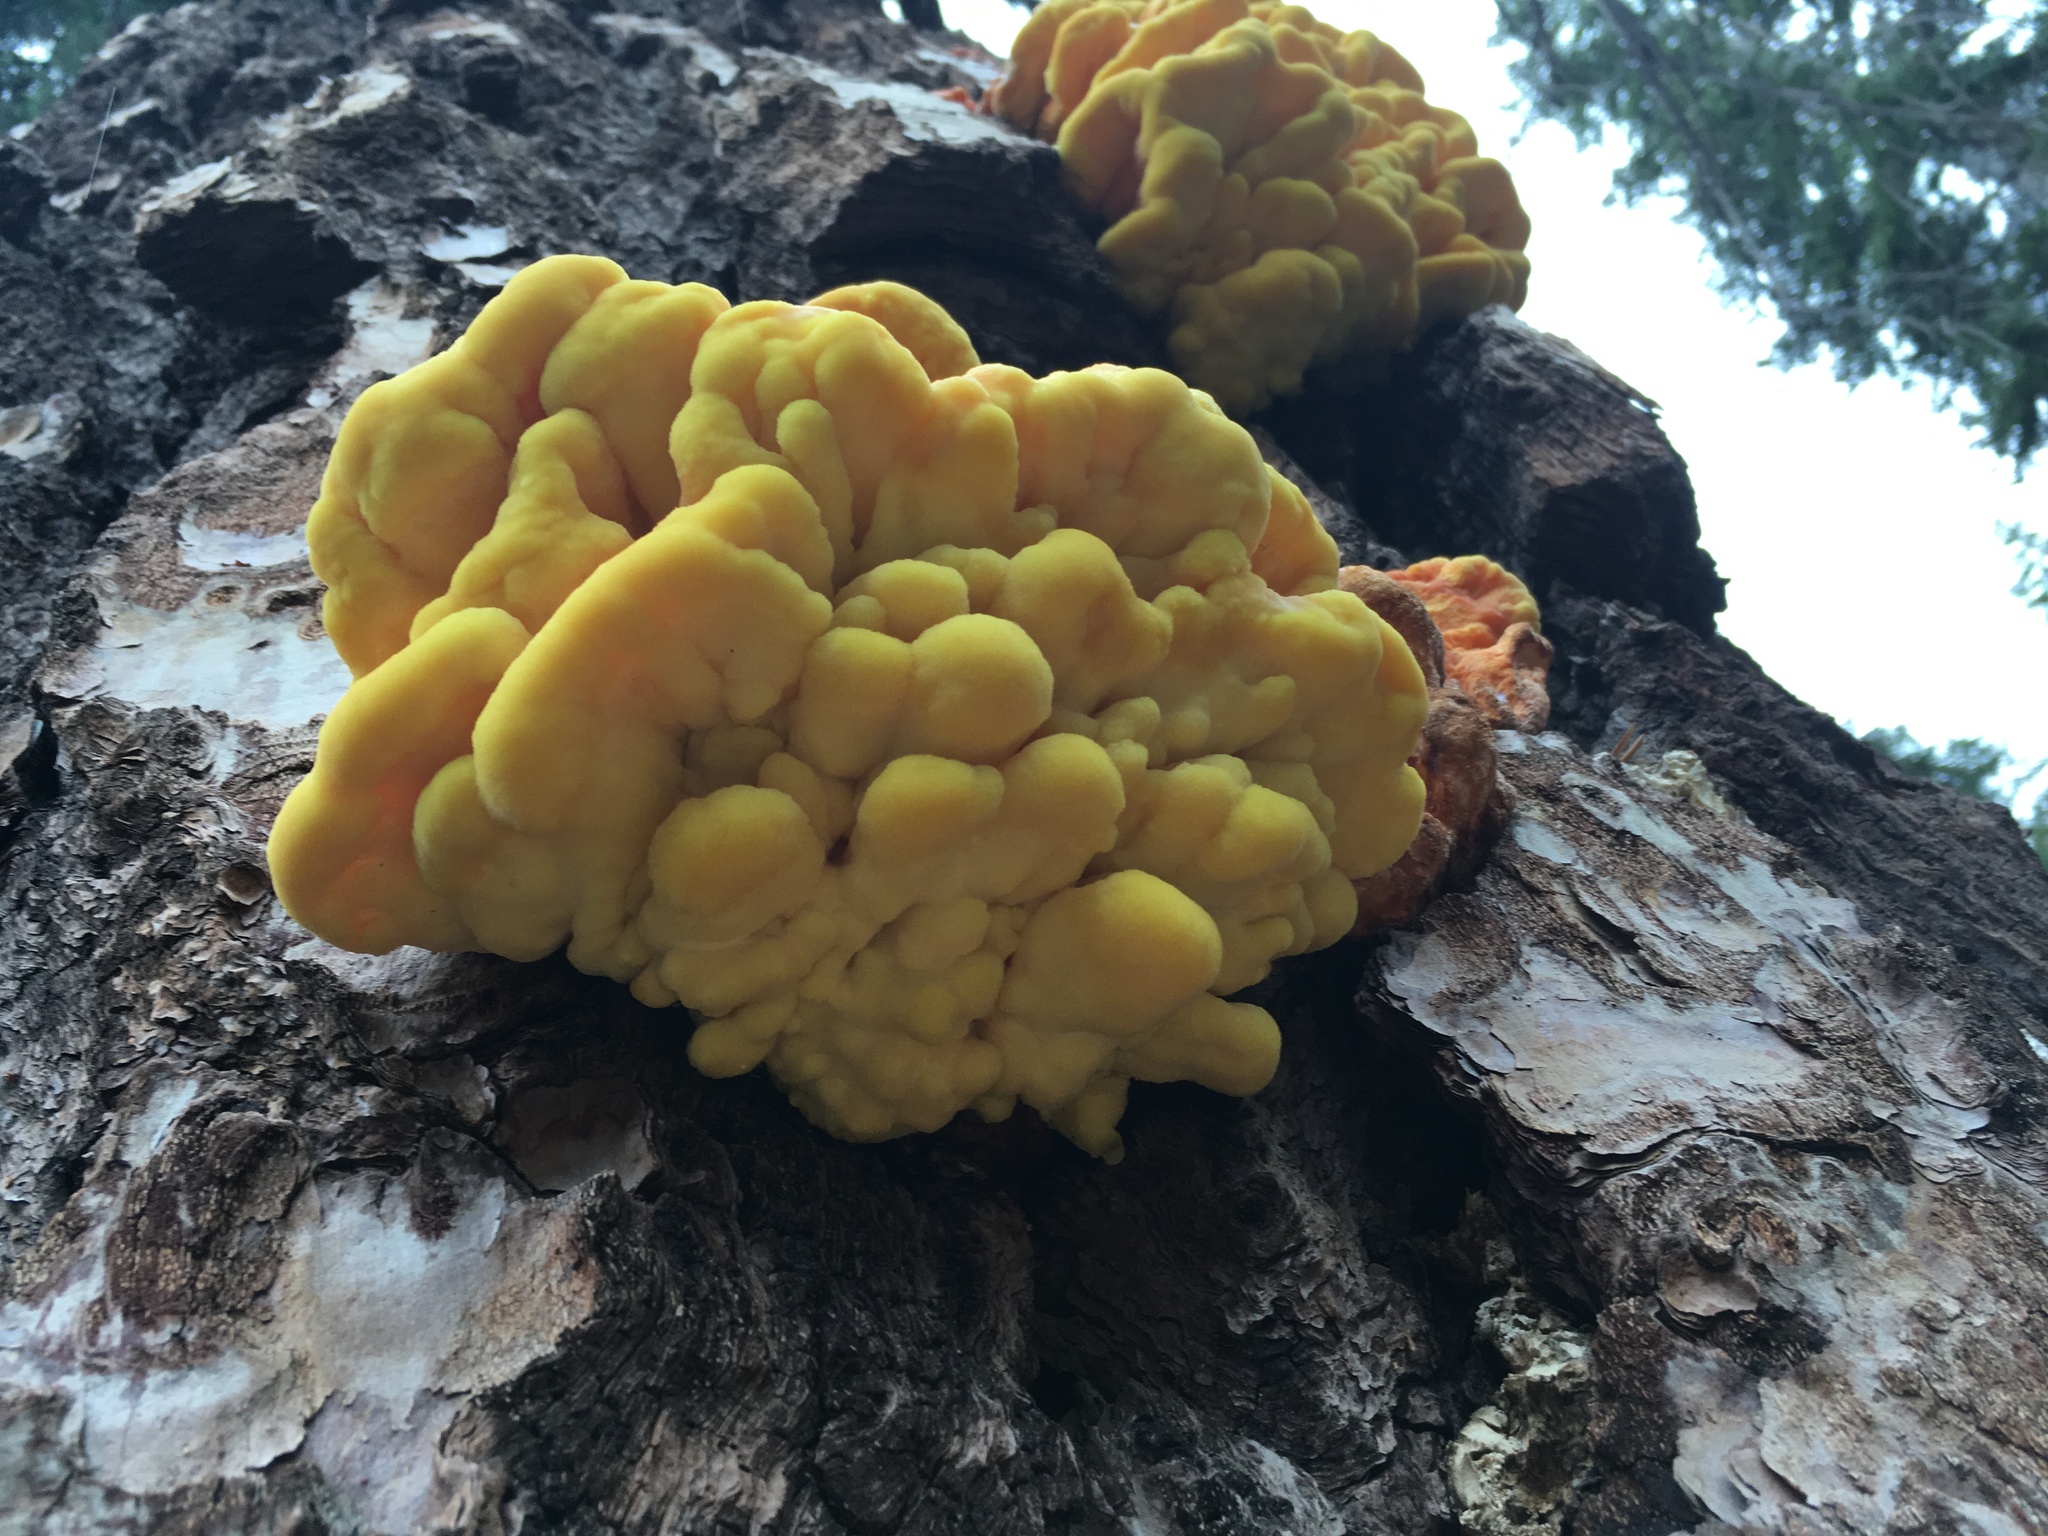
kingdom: Fungi
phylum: Basidiomycota
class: Agaricomycetes
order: Polyporales
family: Laetiporaceae
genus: Laetiporus
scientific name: Laetiporus conifericola
